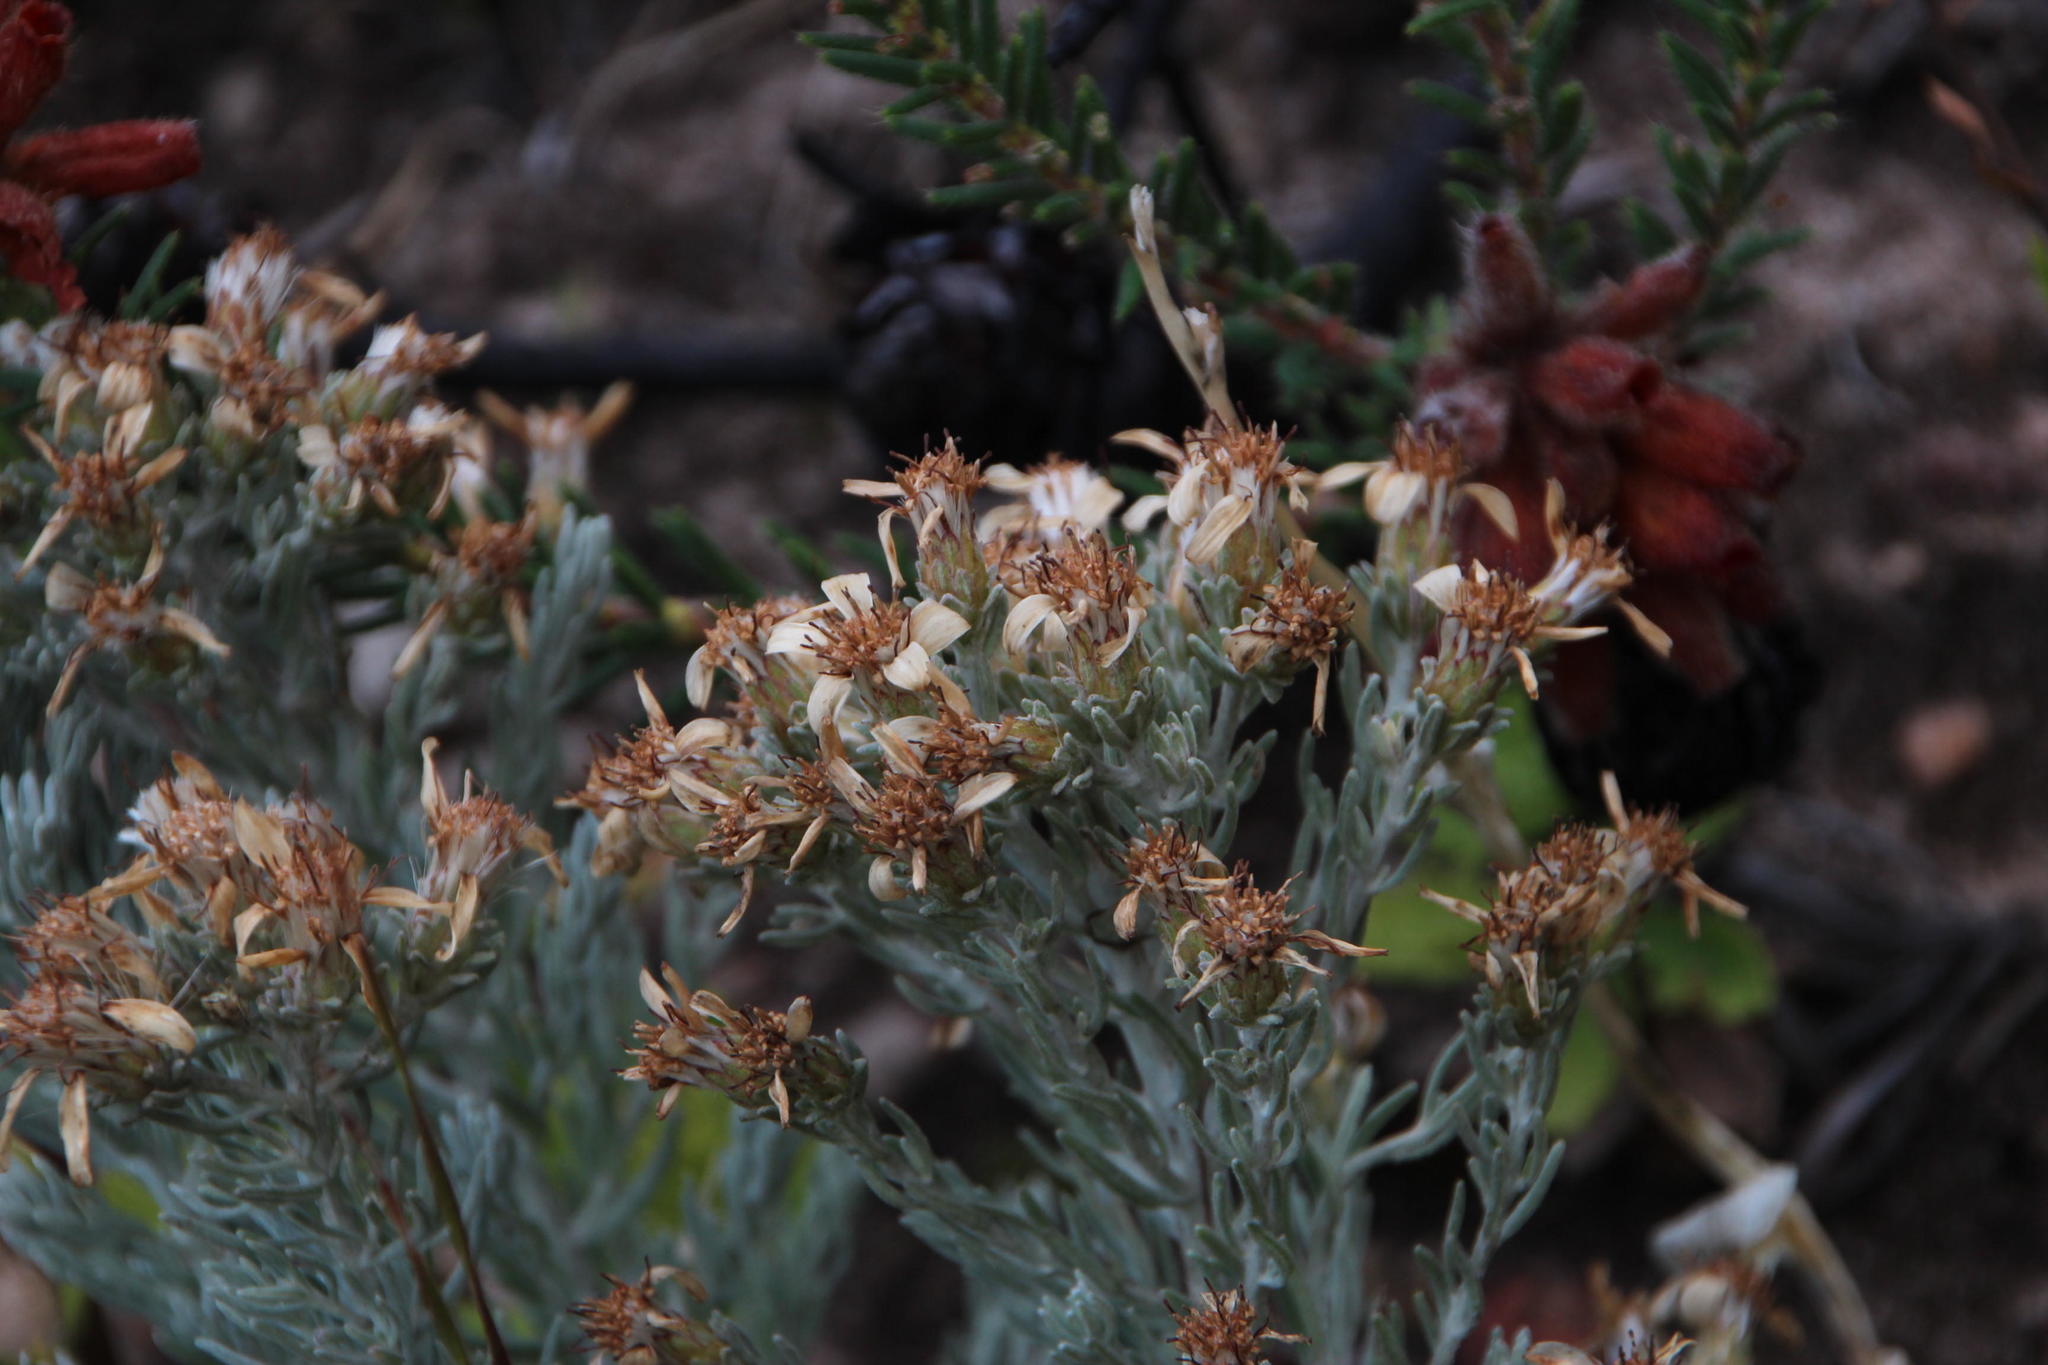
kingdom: Plantae
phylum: Tracheophyta
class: Magnoliopsida
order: Asterales
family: Asteraceae
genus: Printzia
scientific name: Printzia aromatica
